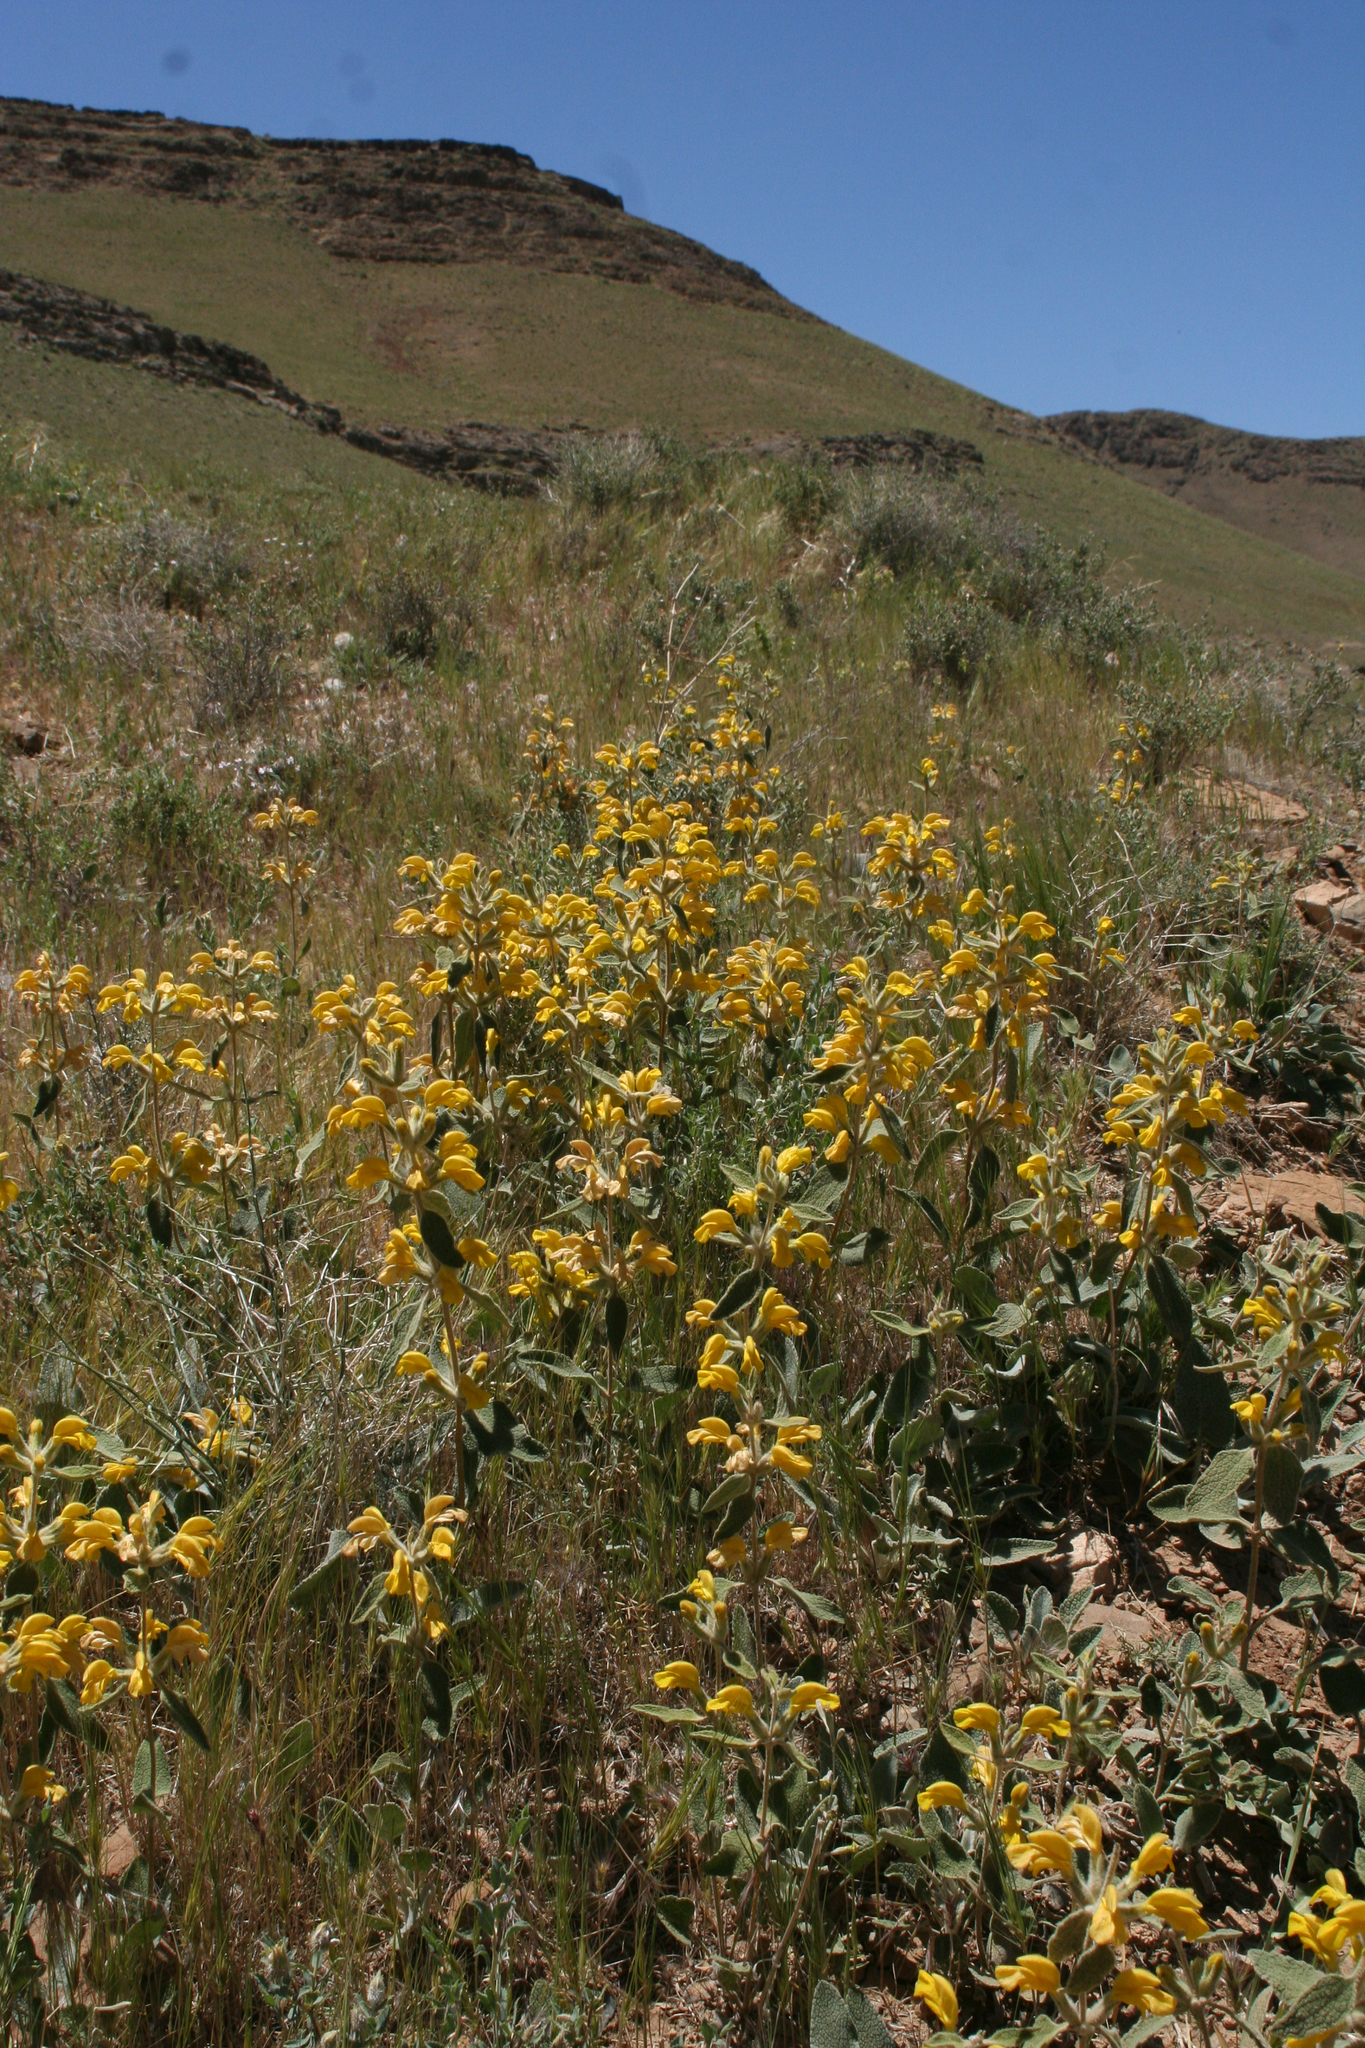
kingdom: Plantae
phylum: Tracheophyta
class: Magnoliopsida
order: Lamiales
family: Lamiaceae
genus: Phlomis
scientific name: Phlomis olivieri
